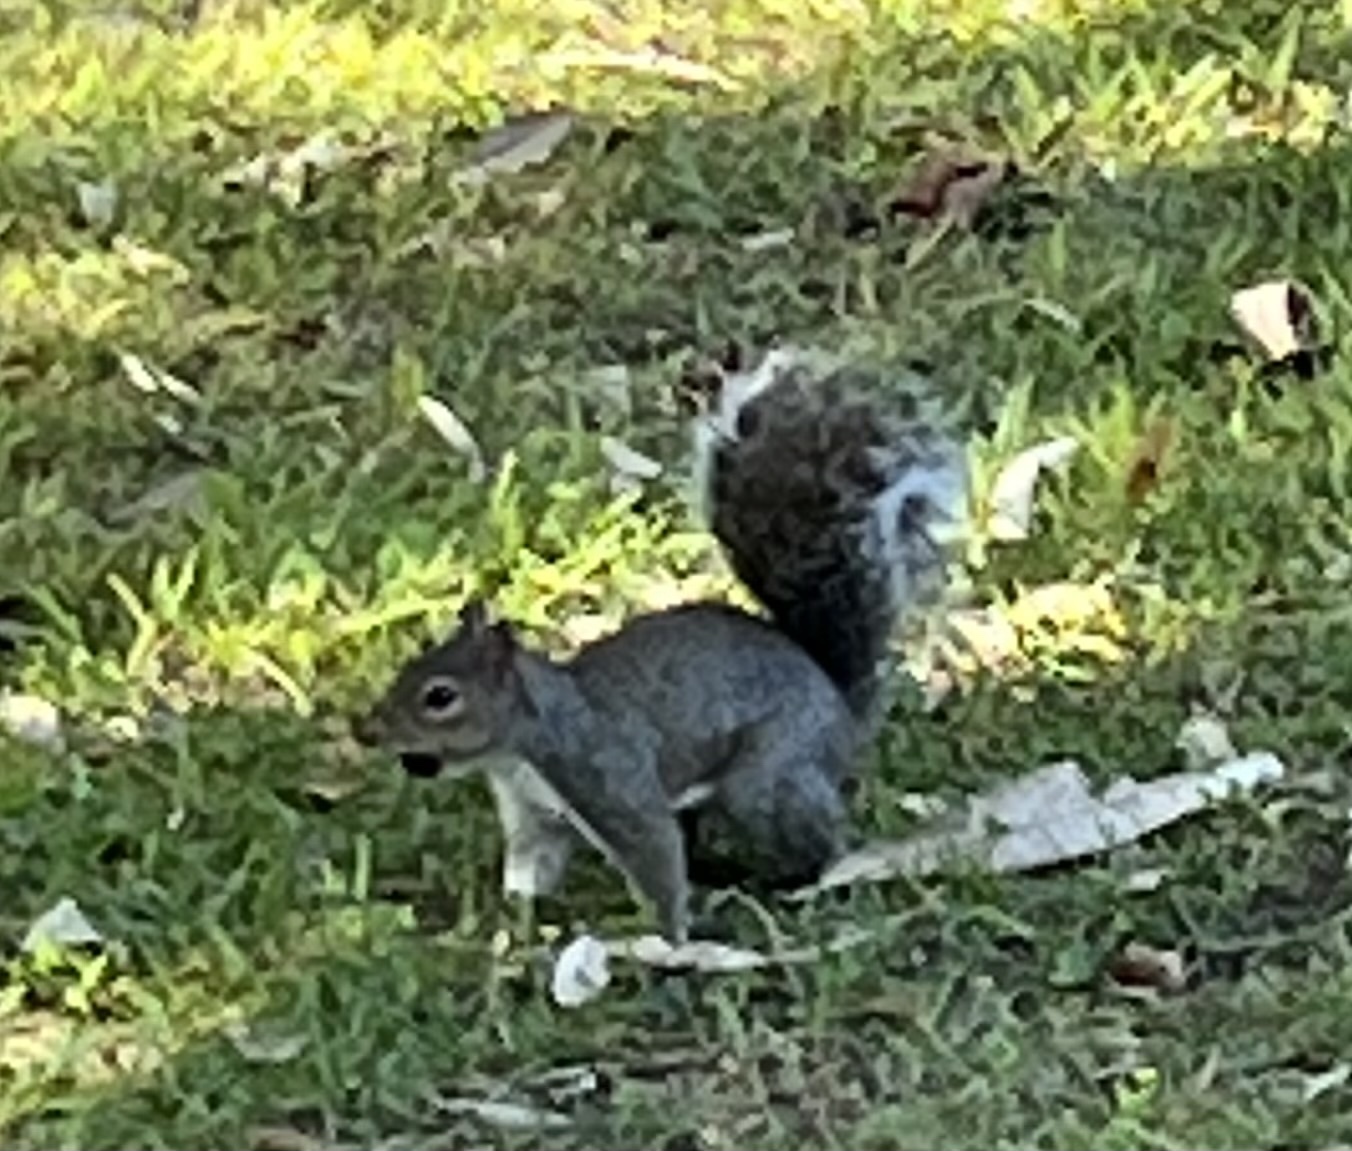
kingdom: Animalia
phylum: Chordata
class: Mammalia
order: Rodentia
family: Sciuridae
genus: Sciurus
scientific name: Sciurus carolinensis
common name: Eastern gray squirrel
